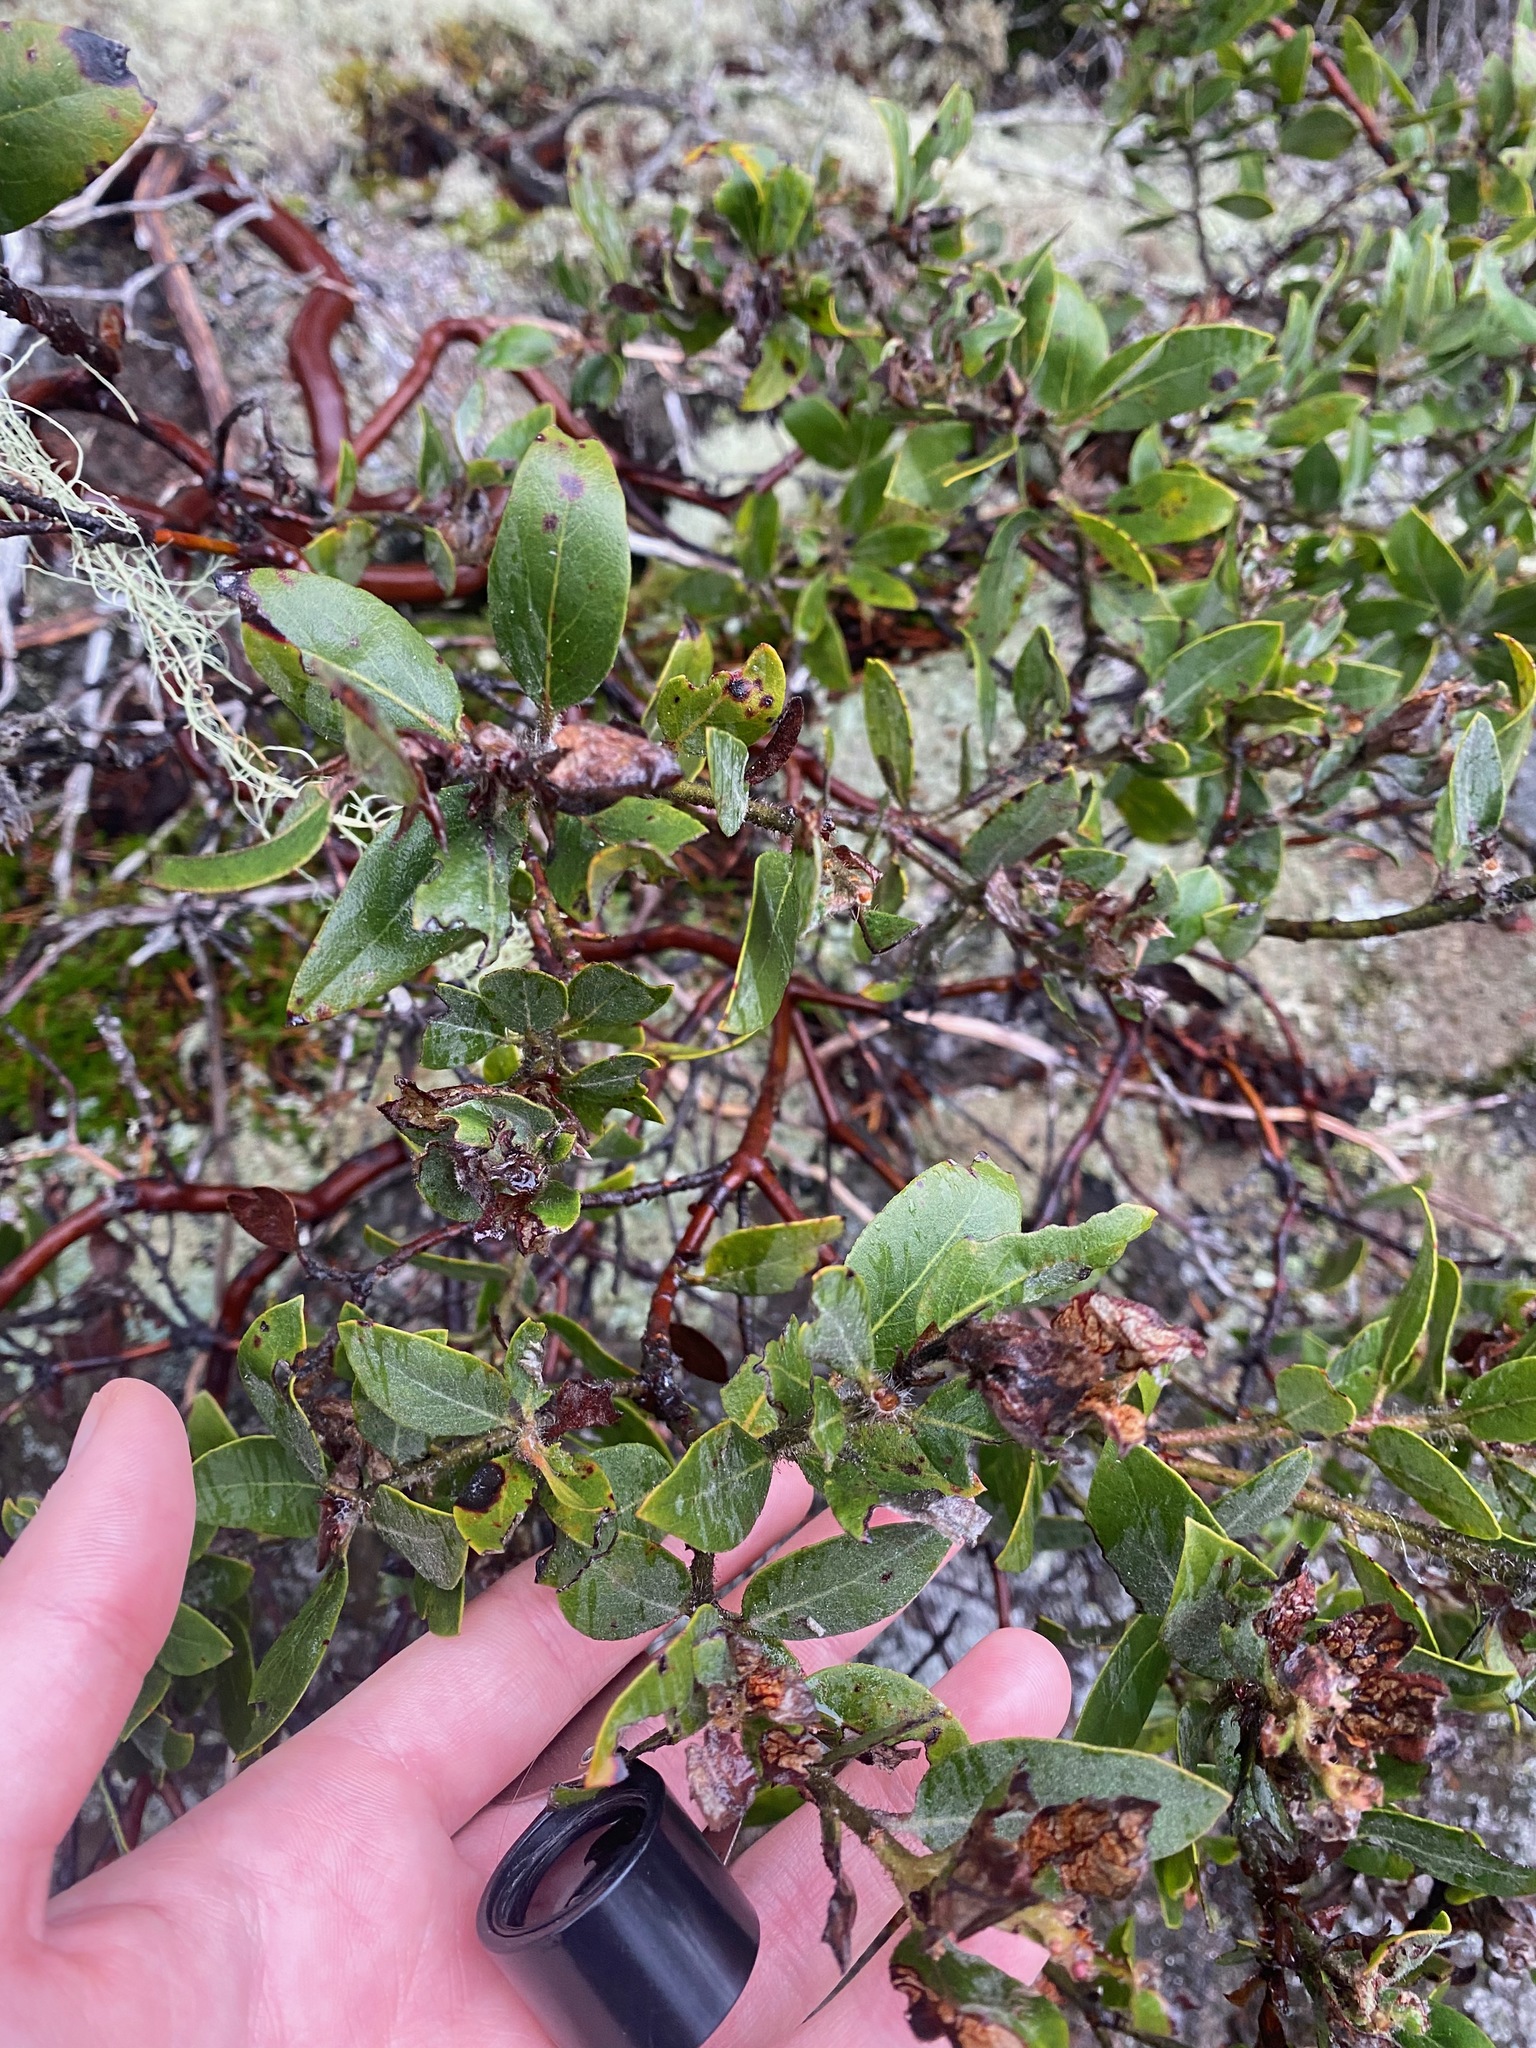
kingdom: Plantae
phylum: Tracheophyta
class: Magnoliopsida
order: Ericales
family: Ericaceae
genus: Arctostaphylos
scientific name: Arctostaphylos columbiana
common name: Bristly bearberry
